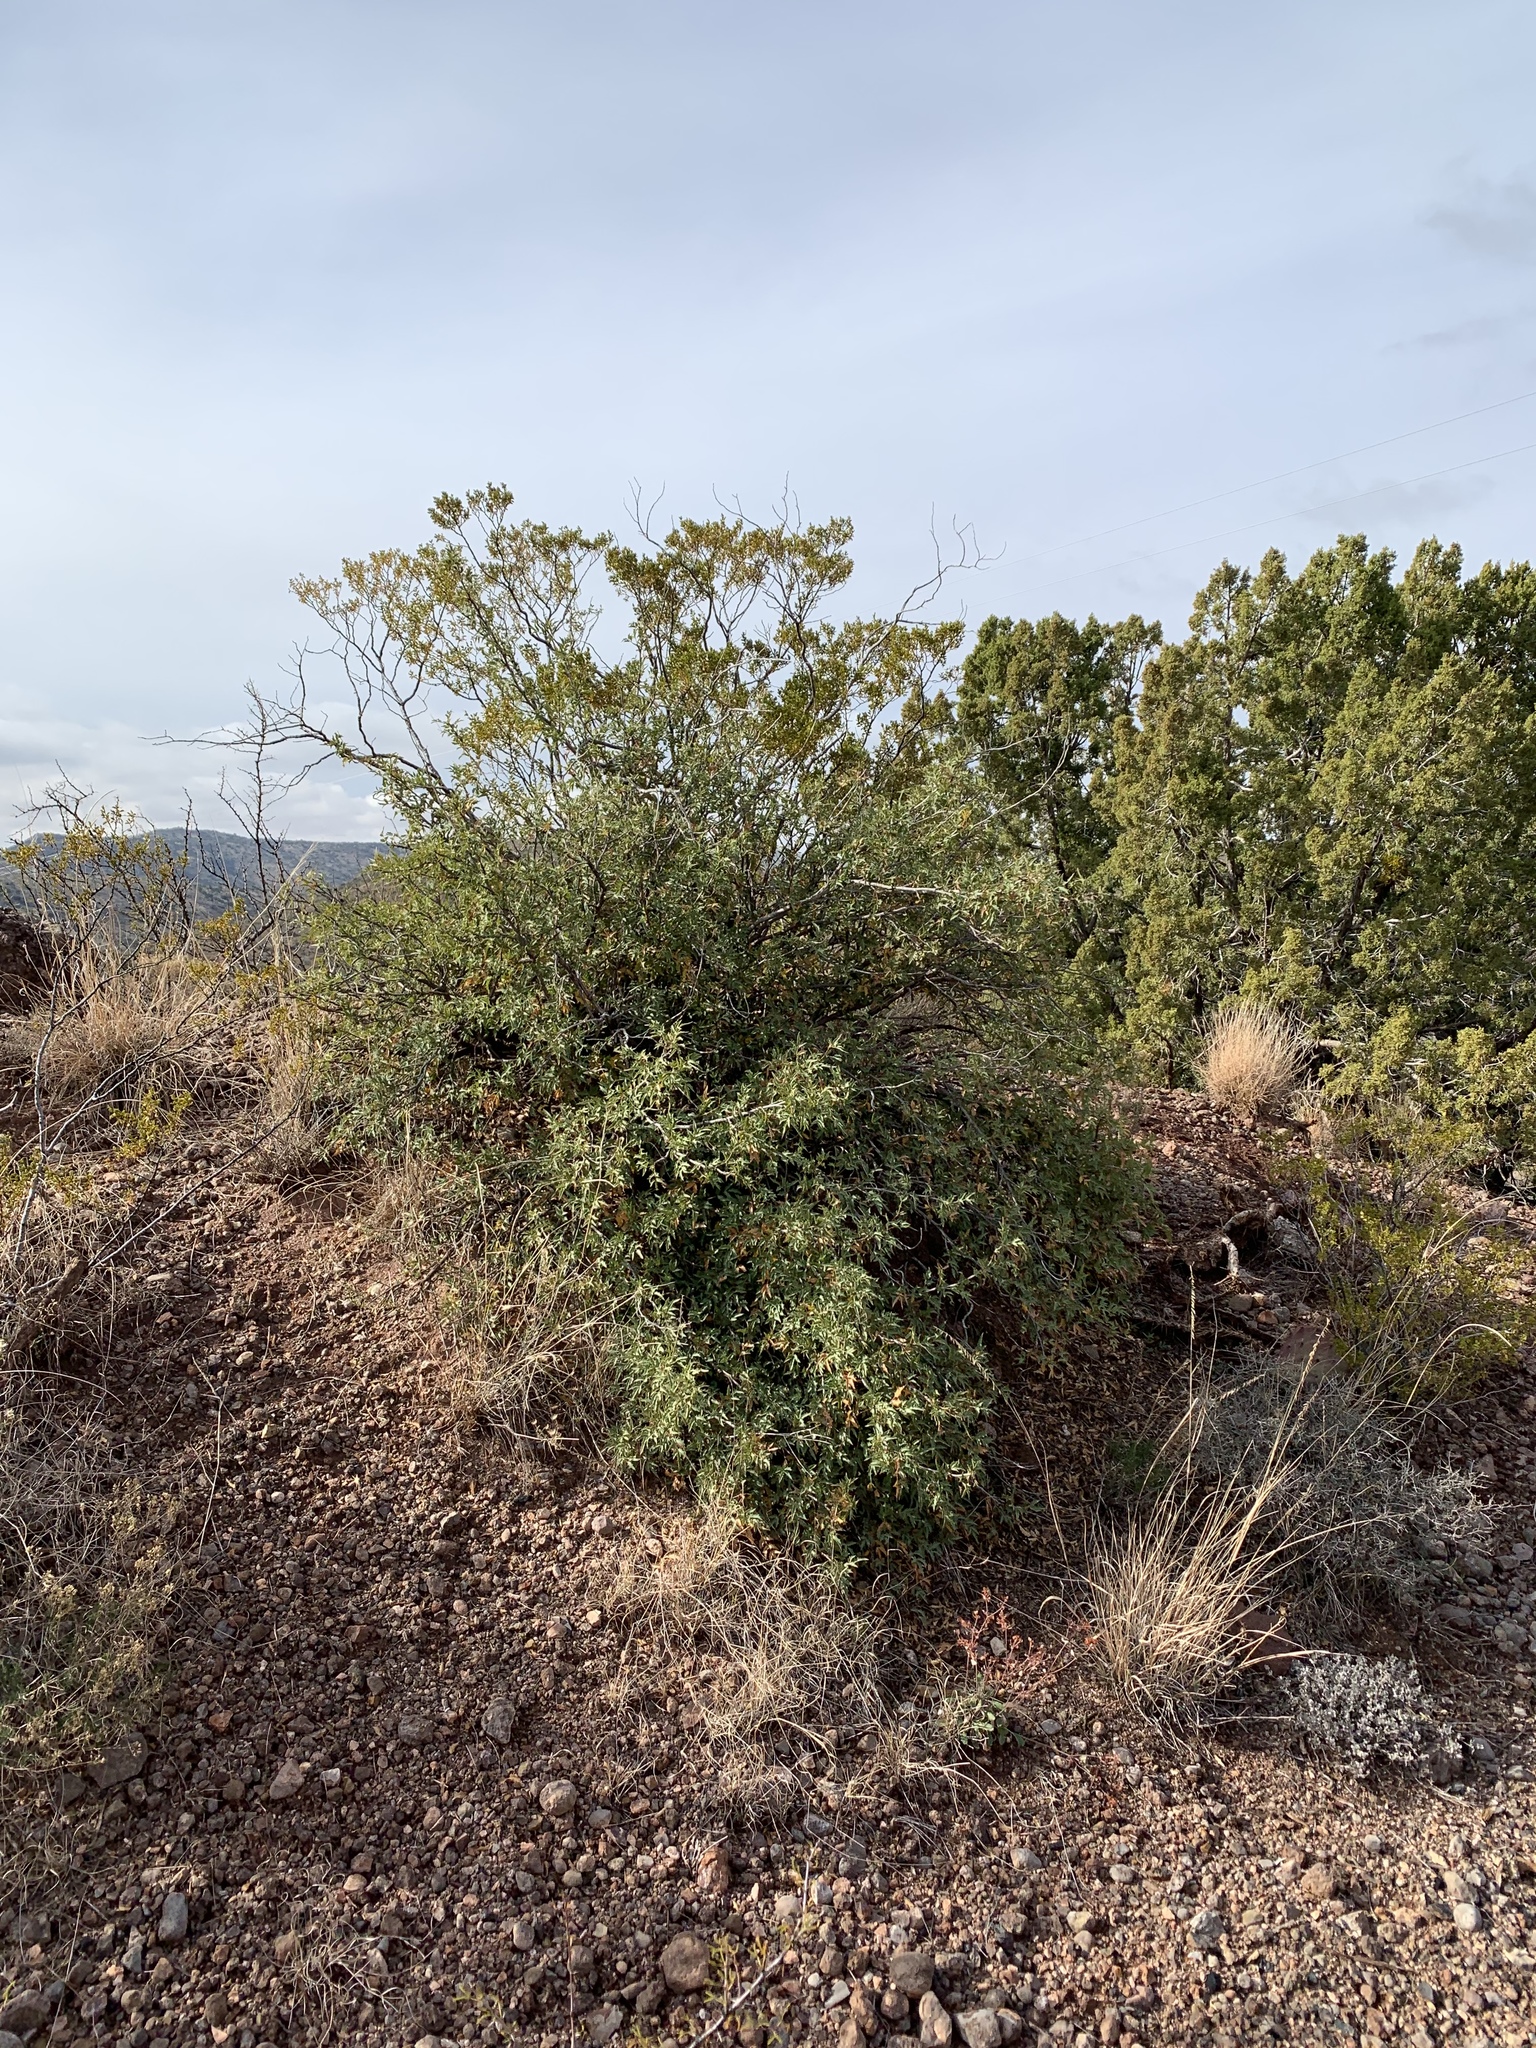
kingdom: Plantae
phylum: Tracheophyta
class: Magnoliopsida
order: Ranunculales
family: Berberidaceae
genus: Alloberberis
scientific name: Alloberberis haematocarpa
